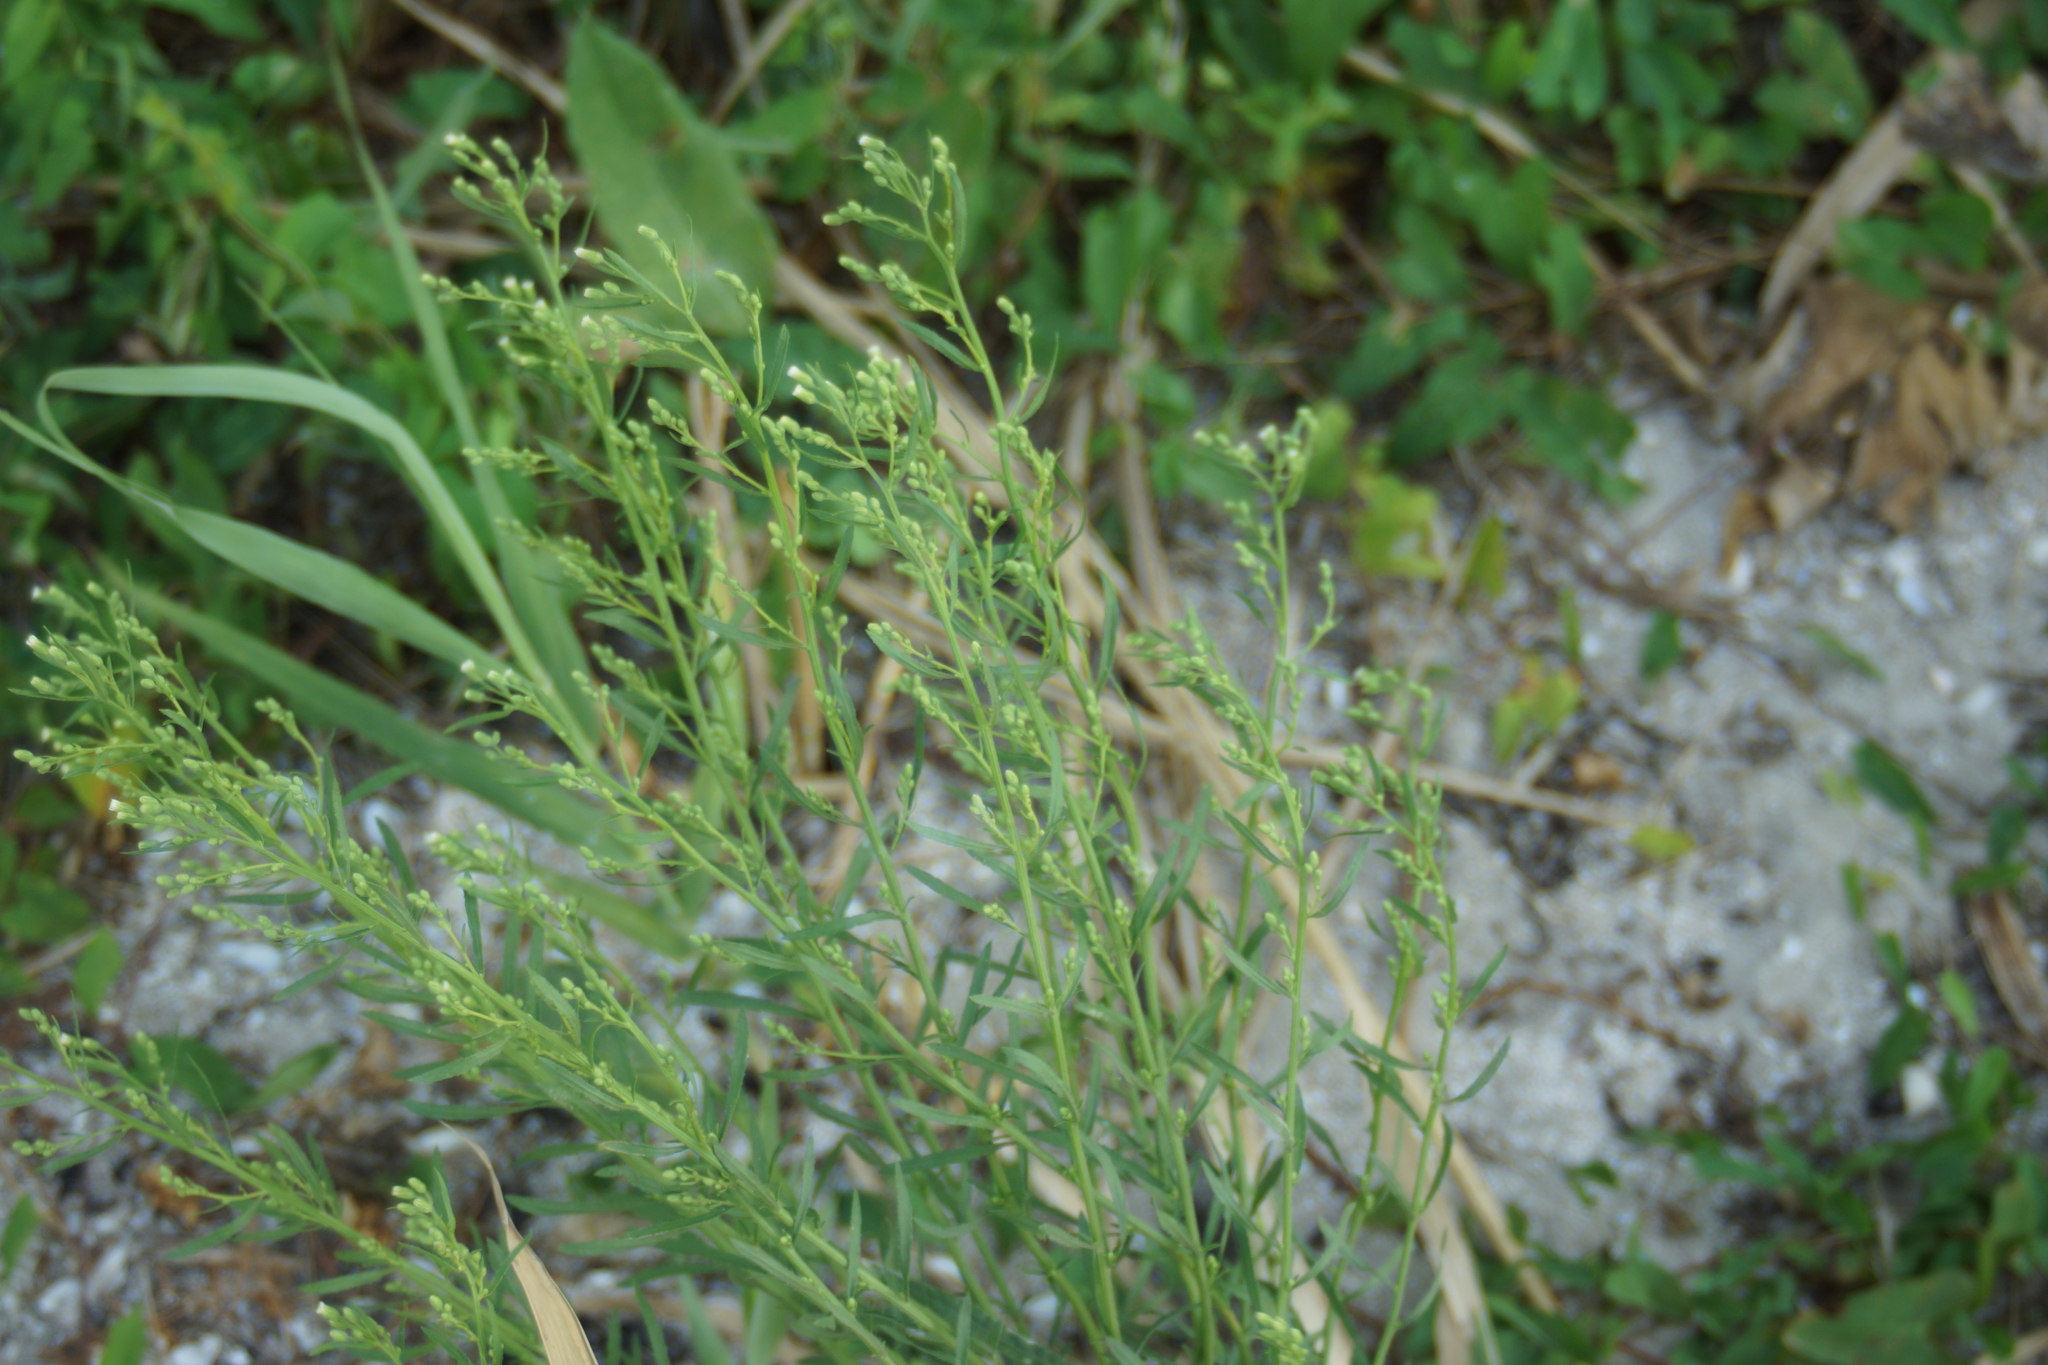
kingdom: Plantae
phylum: Tracheophyta
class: Magnoliopsida
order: Asterales
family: Asteraceae
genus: Erigeron
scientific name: Erigeron canadensis
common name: Canadian fleabane
